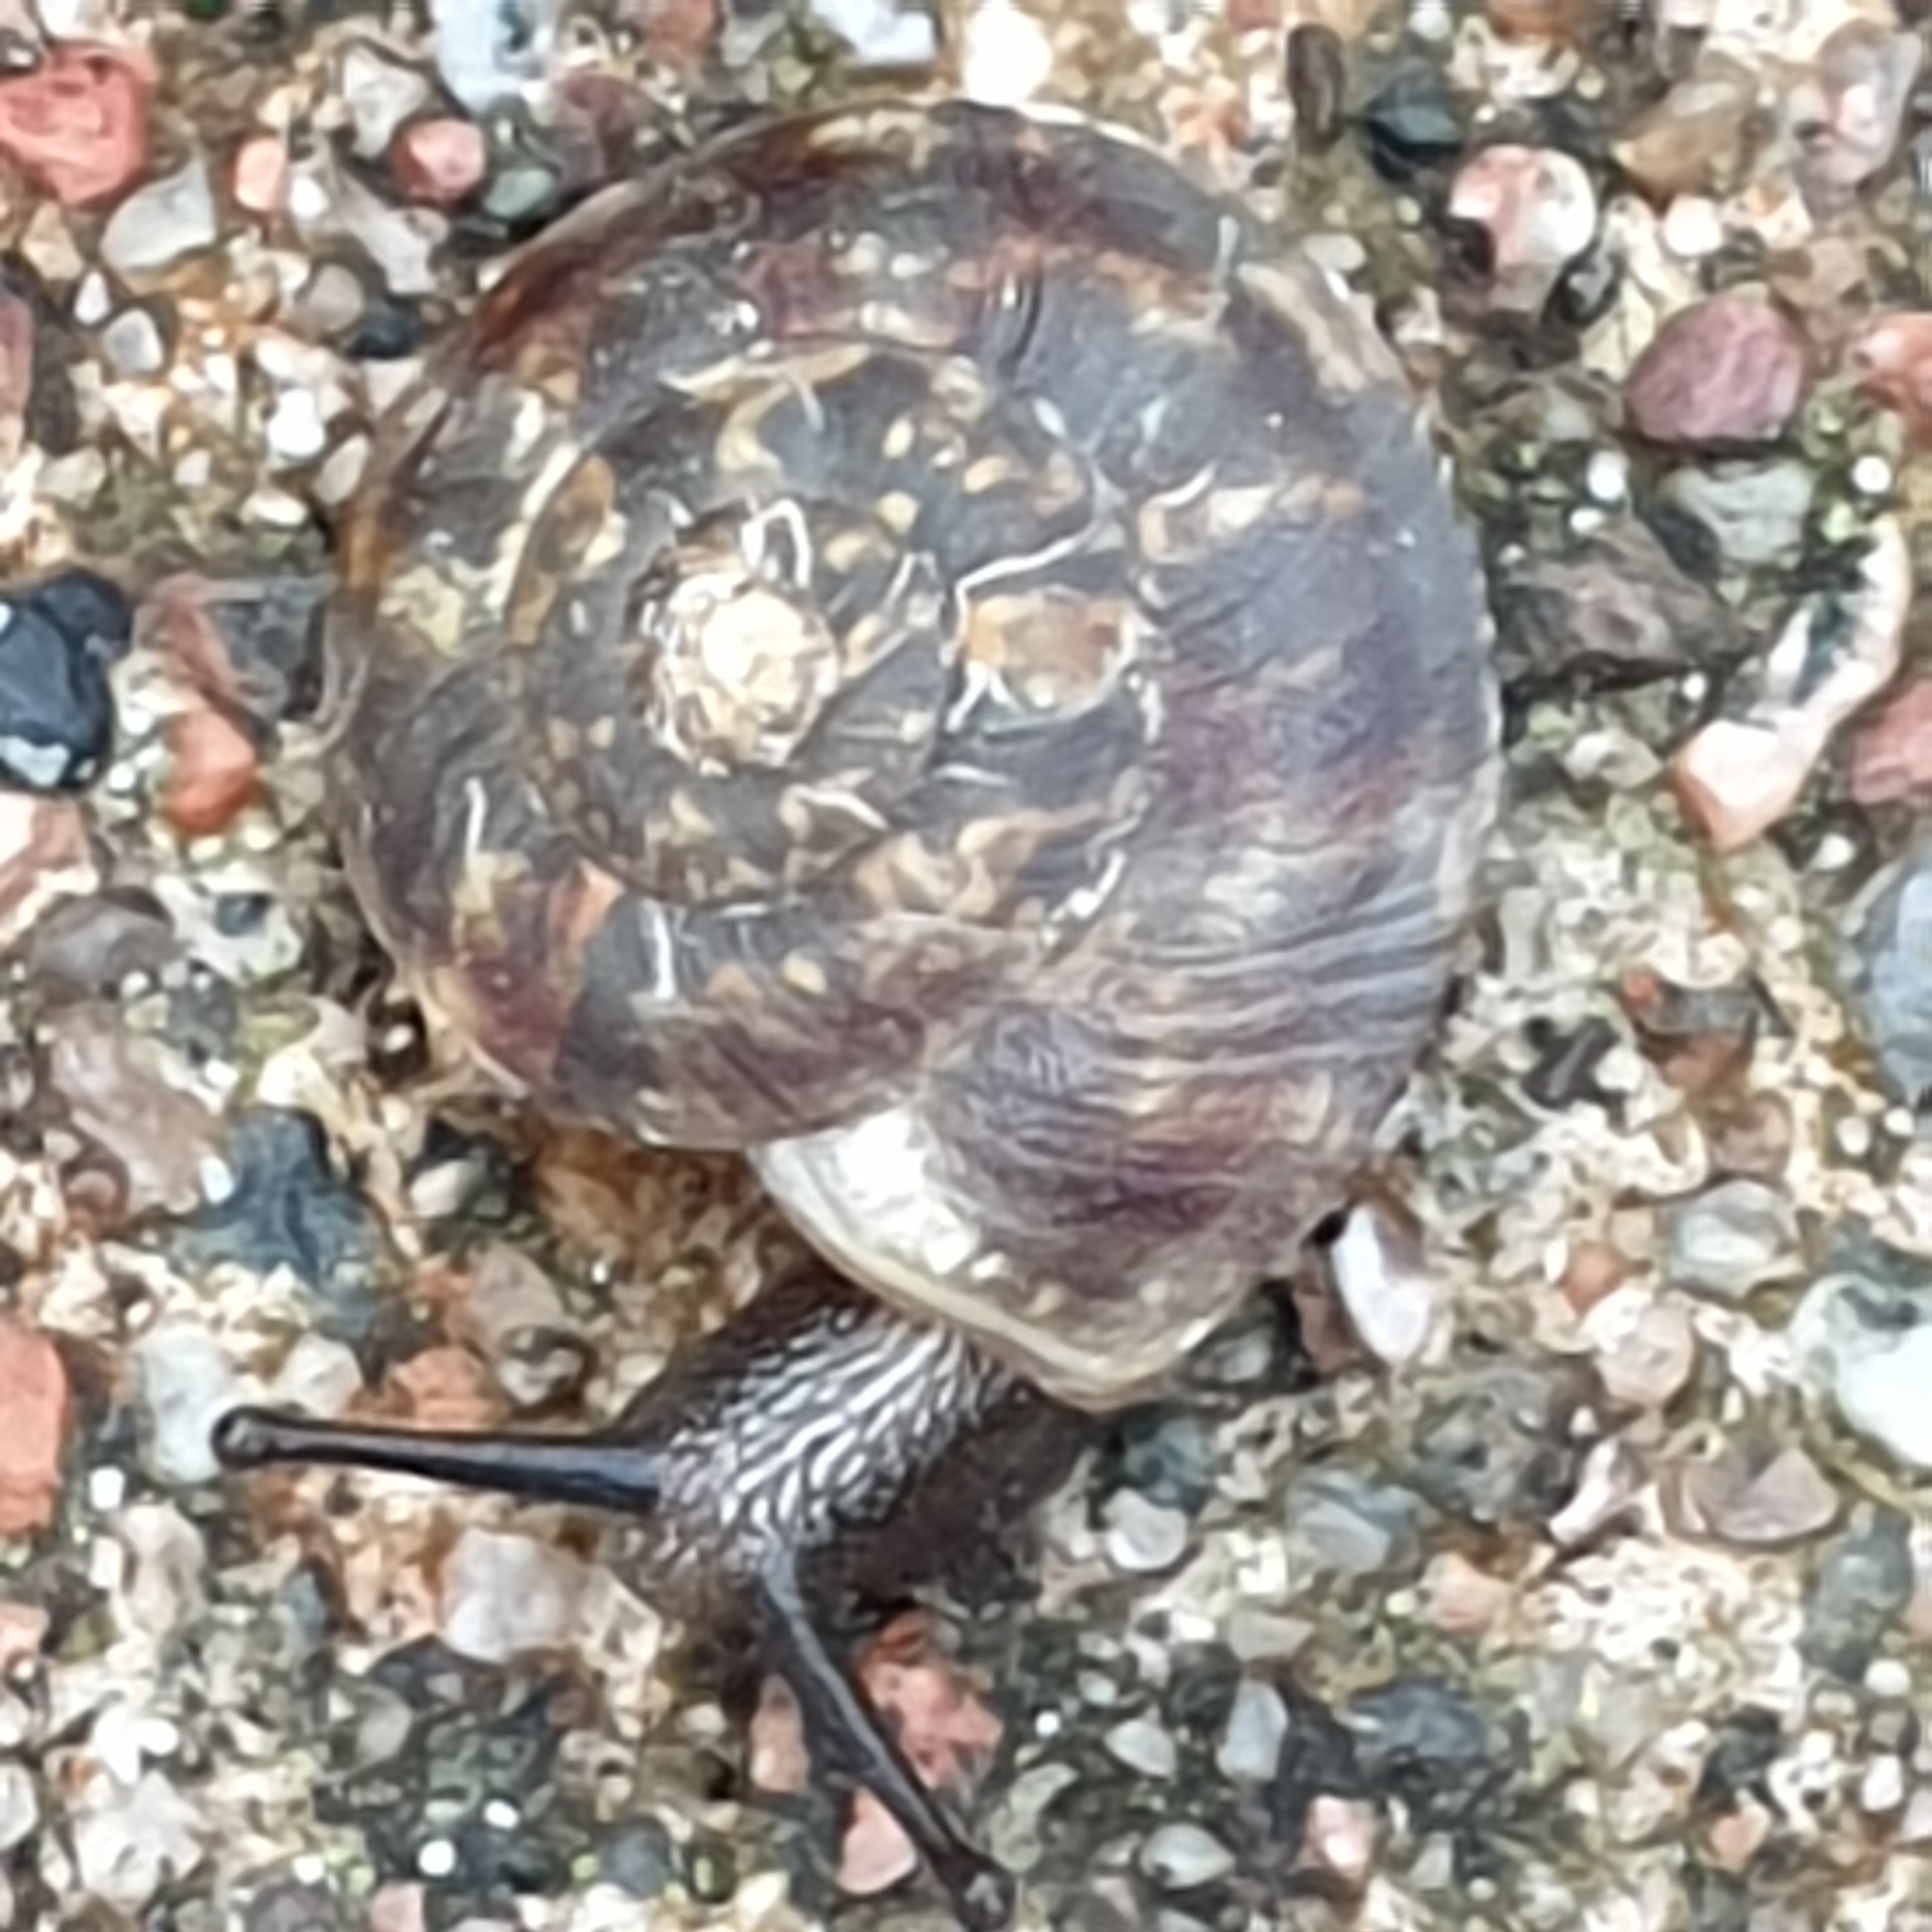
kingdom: Animalia
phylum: Mollusca
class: Gastropoda
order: Stylommatophora
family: Helicidae
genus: Helicigona
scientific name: Helicigona lapicida
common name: Lapidary snail
